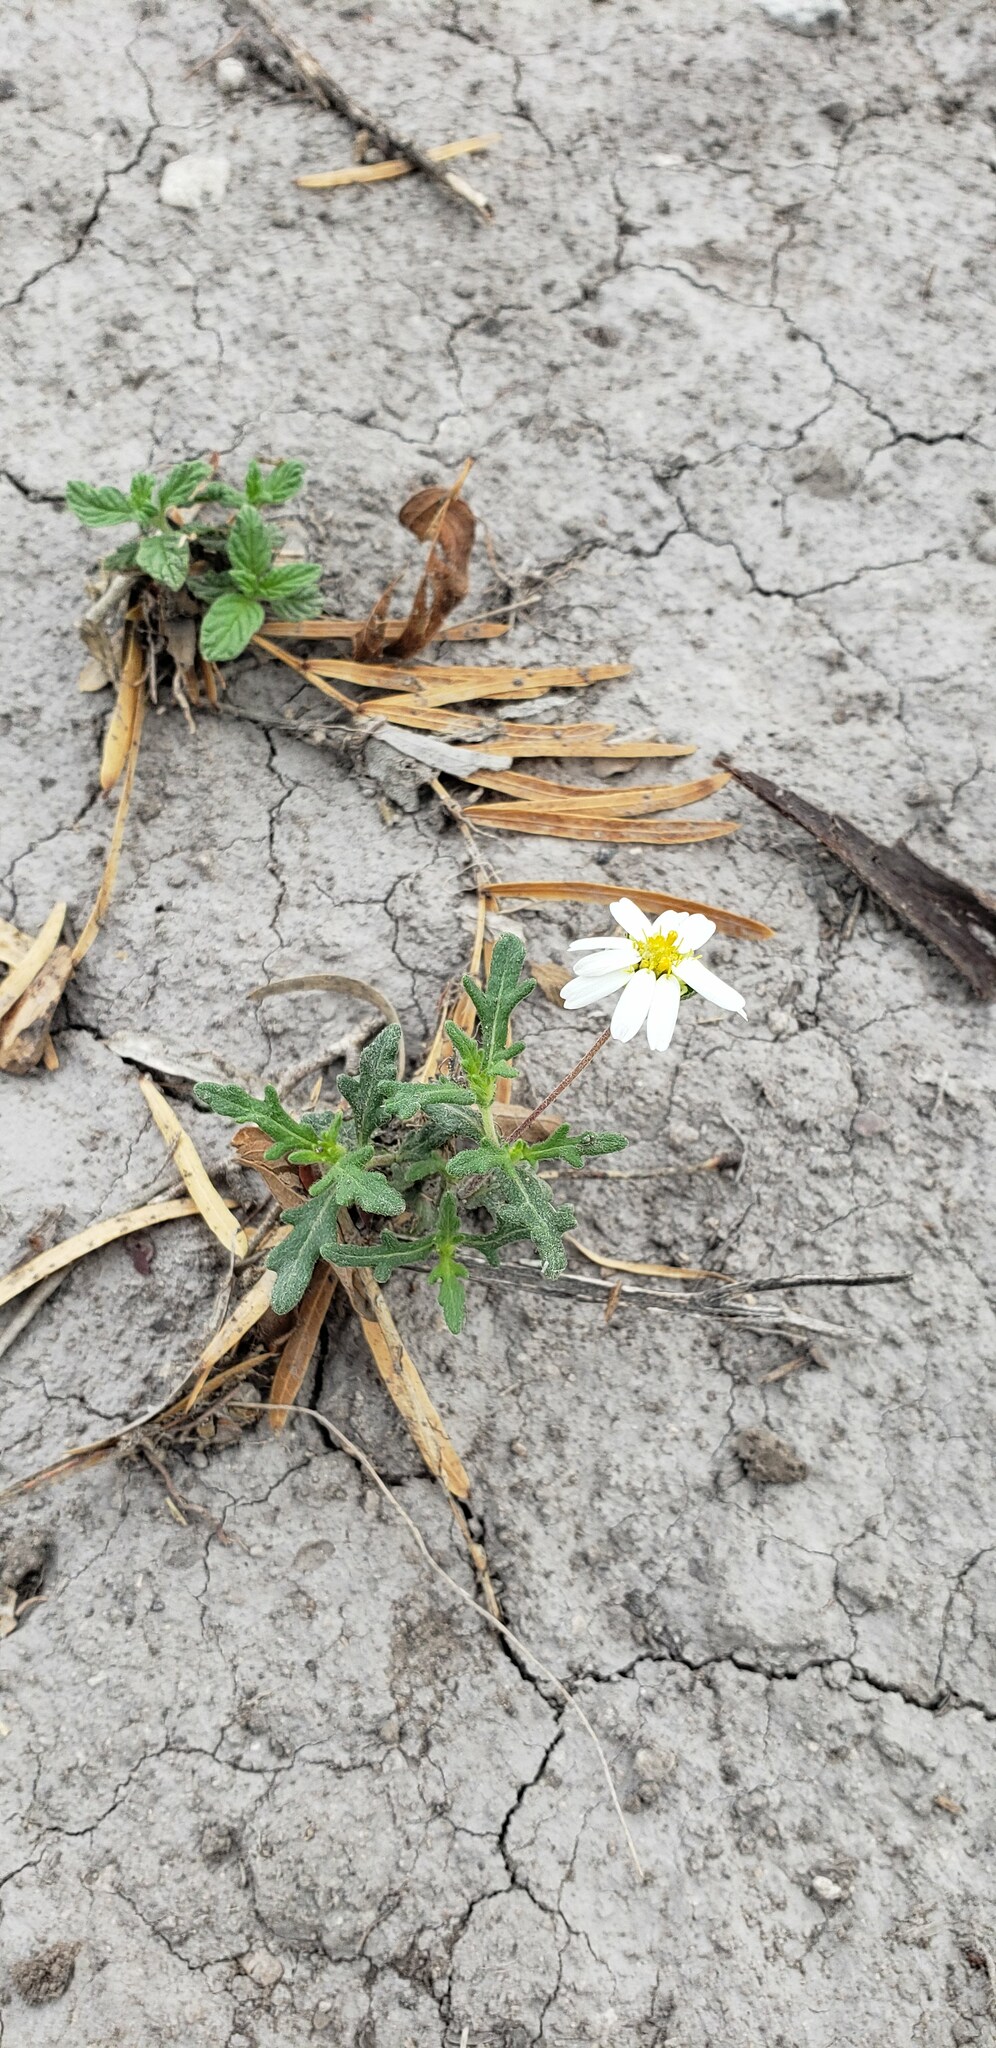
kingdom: Plantae
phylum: Tracheophyta
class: Magnoliopsida
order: Asterales
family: Asteraceae
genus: Melampodium
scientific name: Melampodium cinereum
